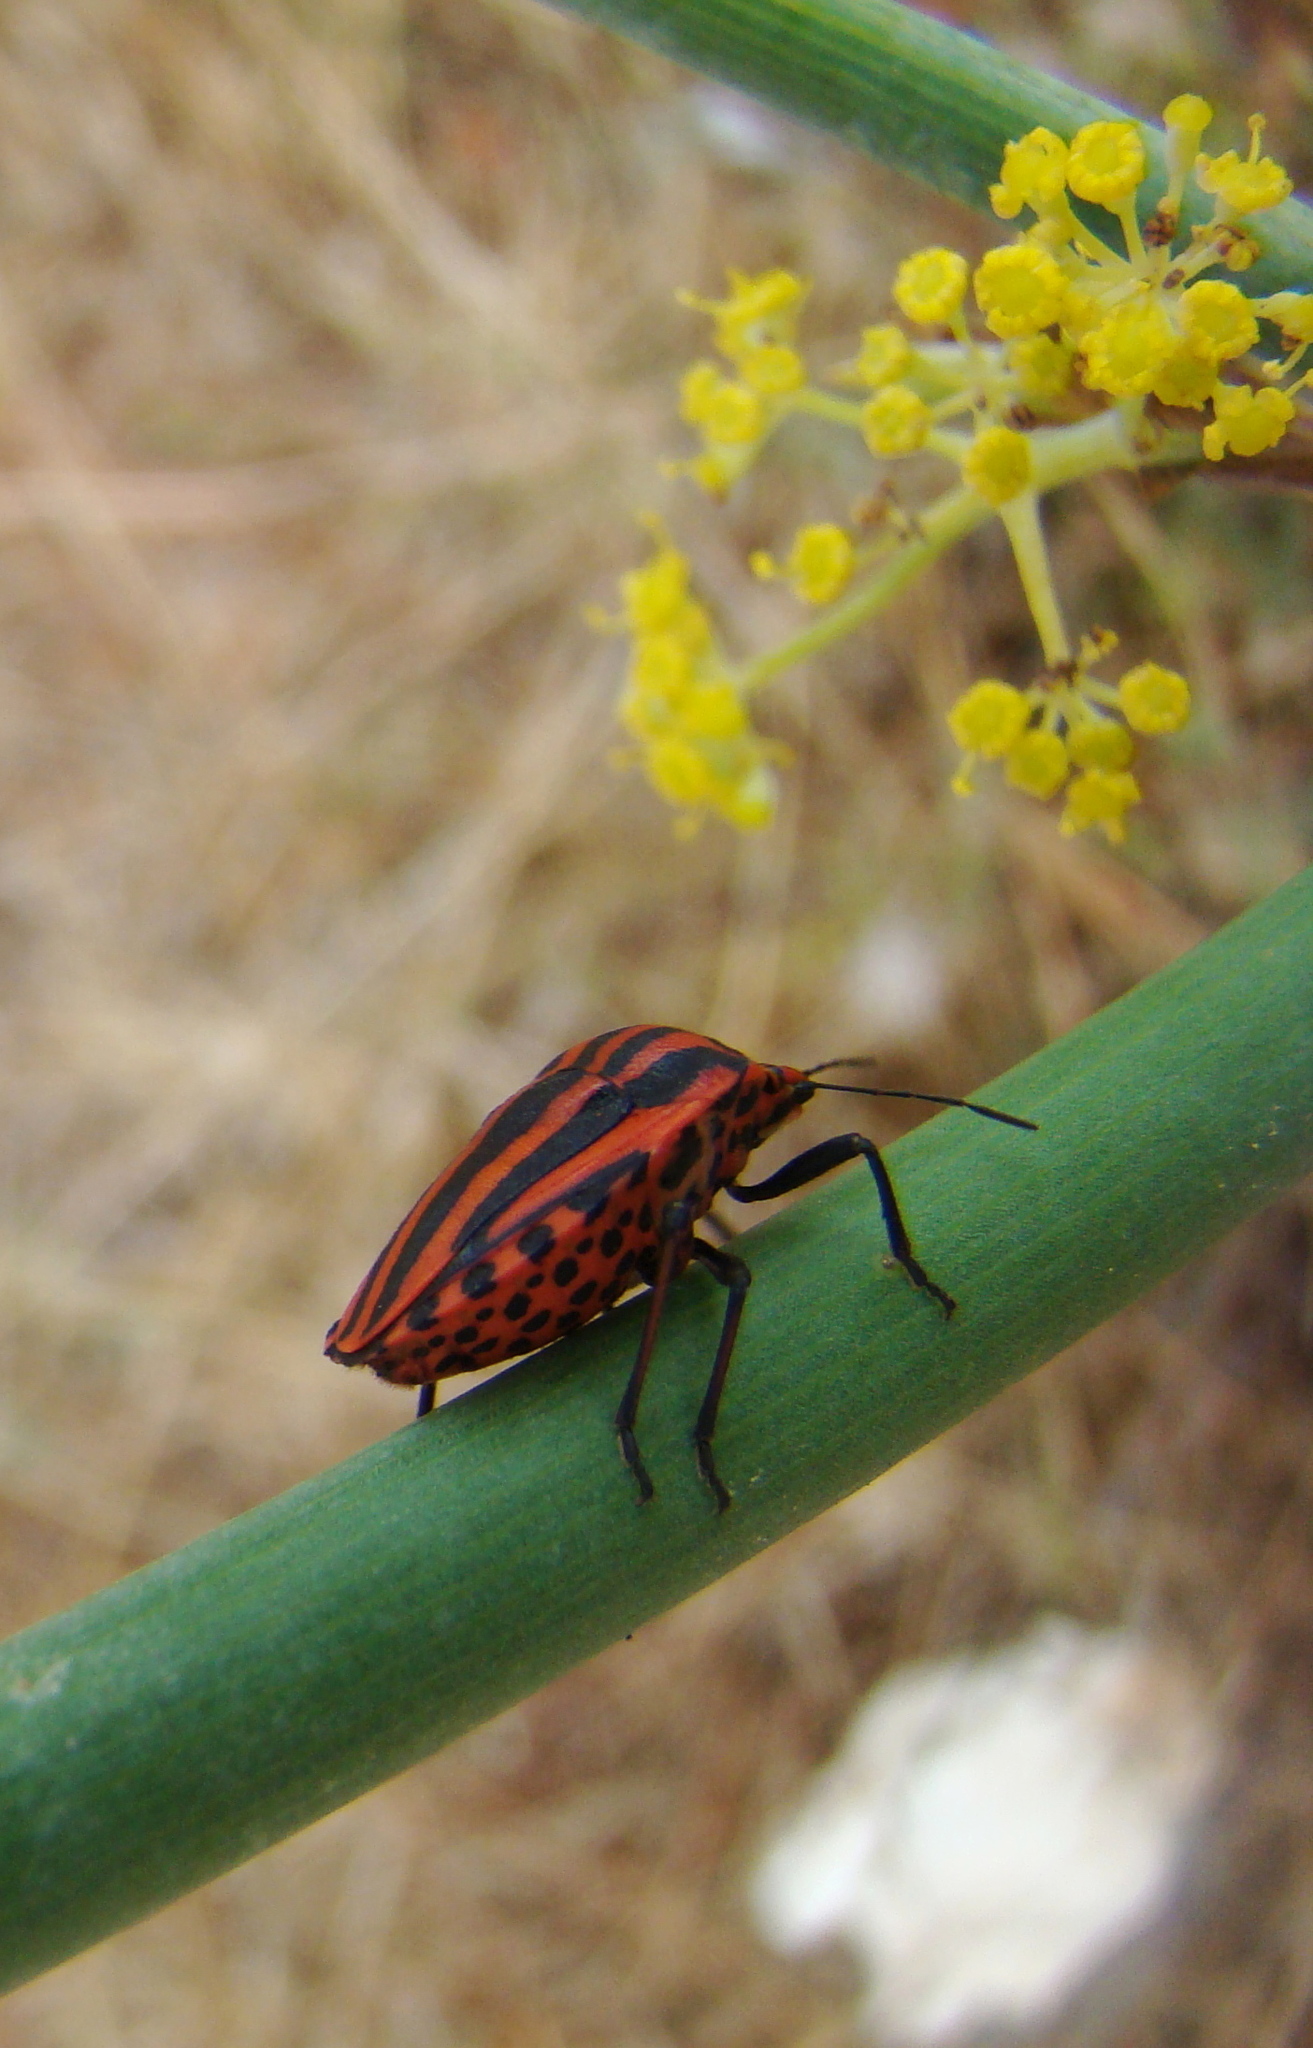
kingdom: Animalia
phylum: Arthropoda
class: Insecta
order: Hemiptera
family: Pentatomidae
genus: Graphosoma
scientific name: Graphosoma italicum
